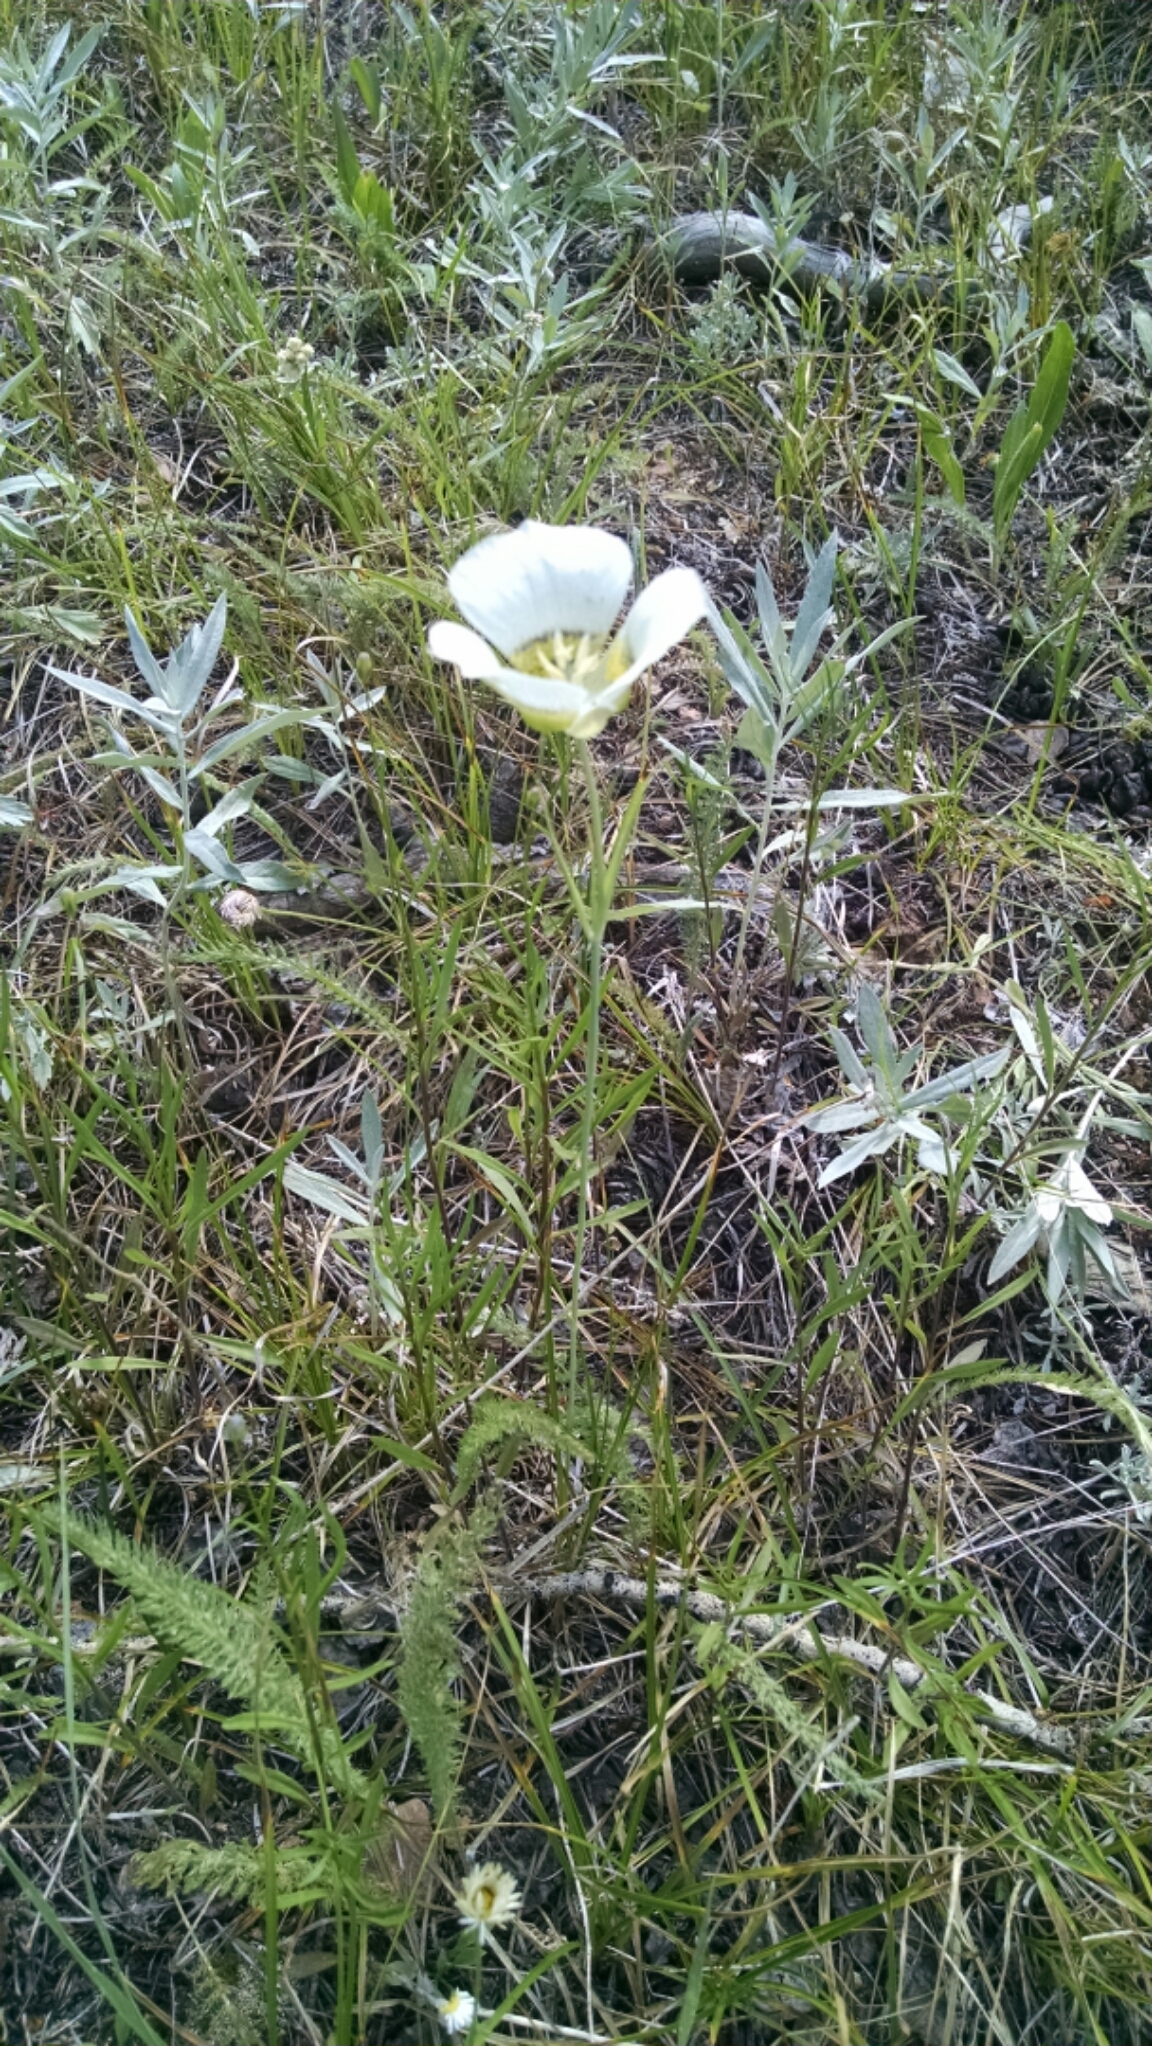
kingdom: Plantae
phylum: Tracheophyta
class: Liliopsida
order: Liliales
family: Liliaceae
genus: Calochortus
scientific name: Calochortus gunnisonii
